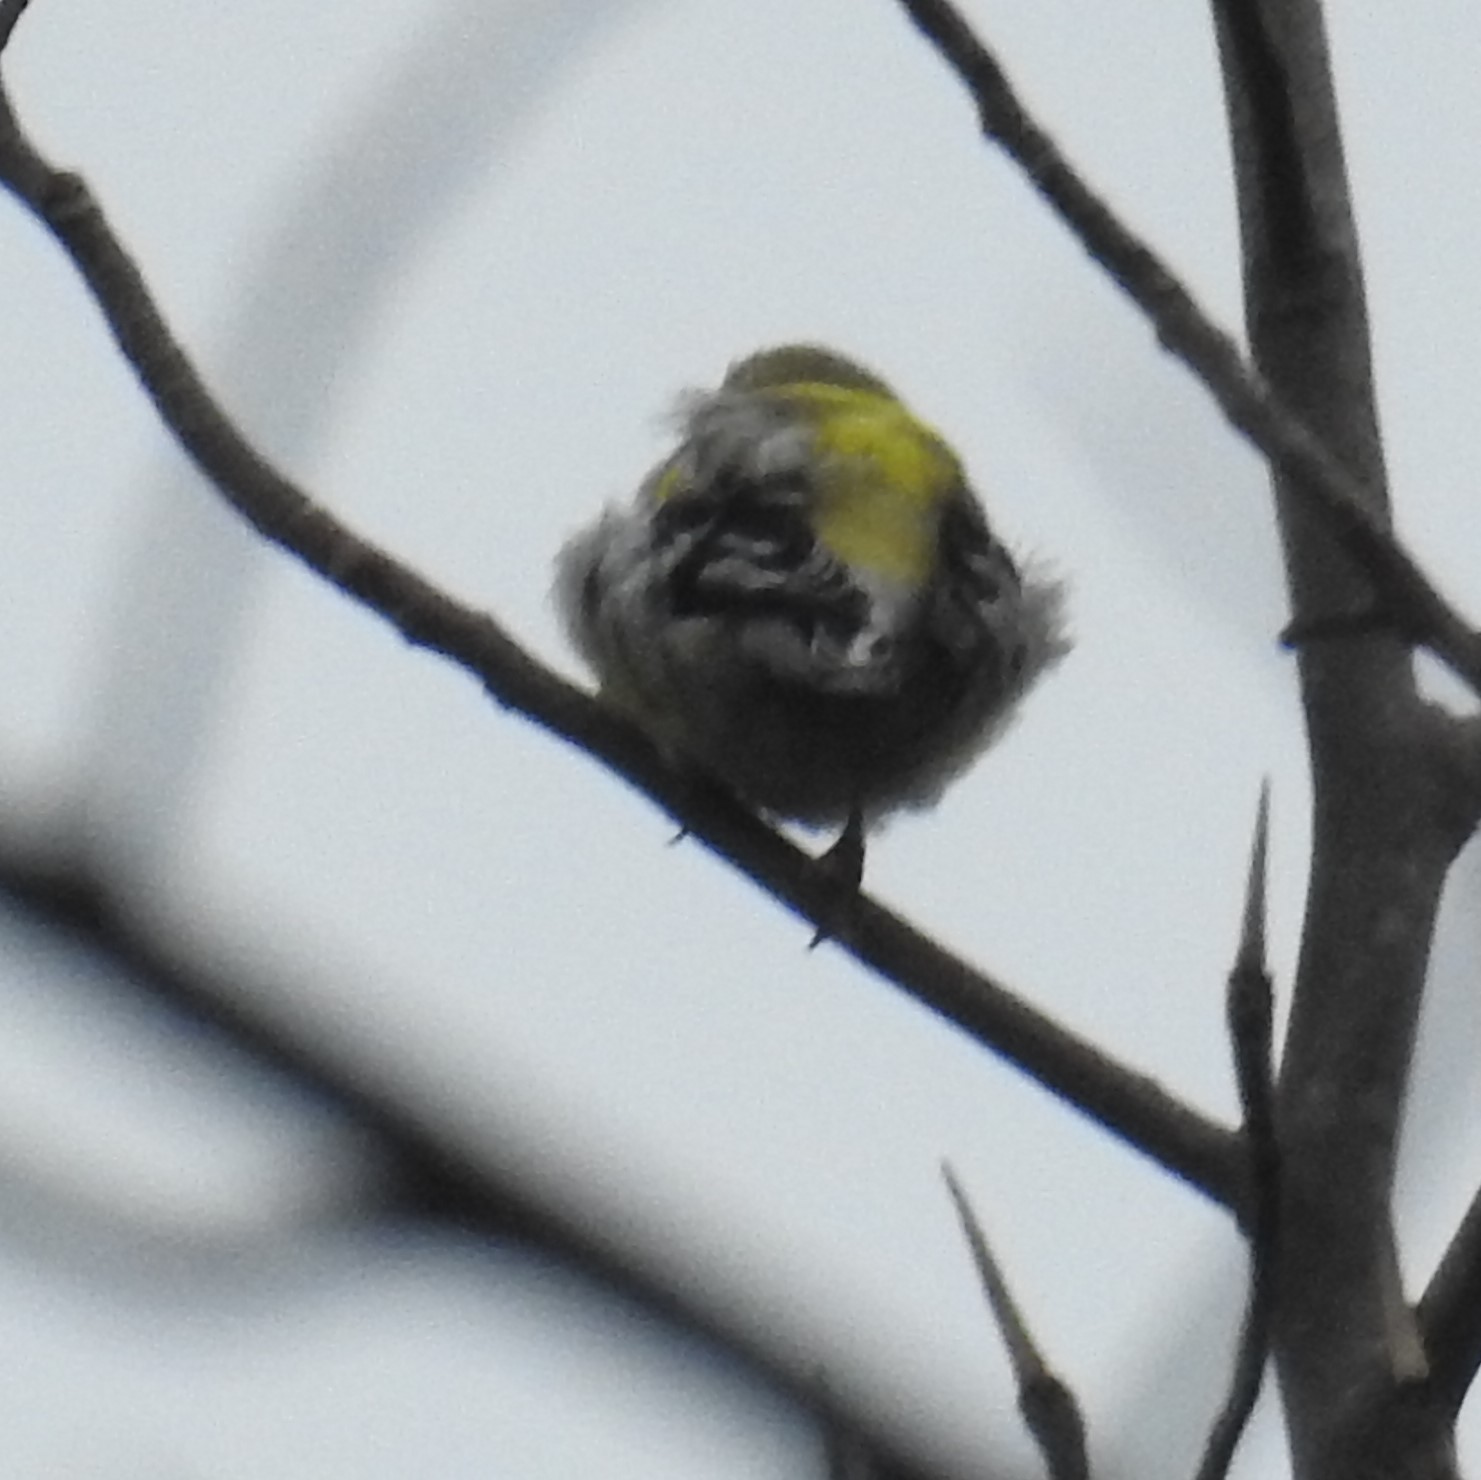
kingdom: Animalia
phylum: Chordata
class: Aves
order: Passeriformes
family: Fringillidae
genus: Spinus
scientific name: Spinus tristis
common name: American goldfinch
